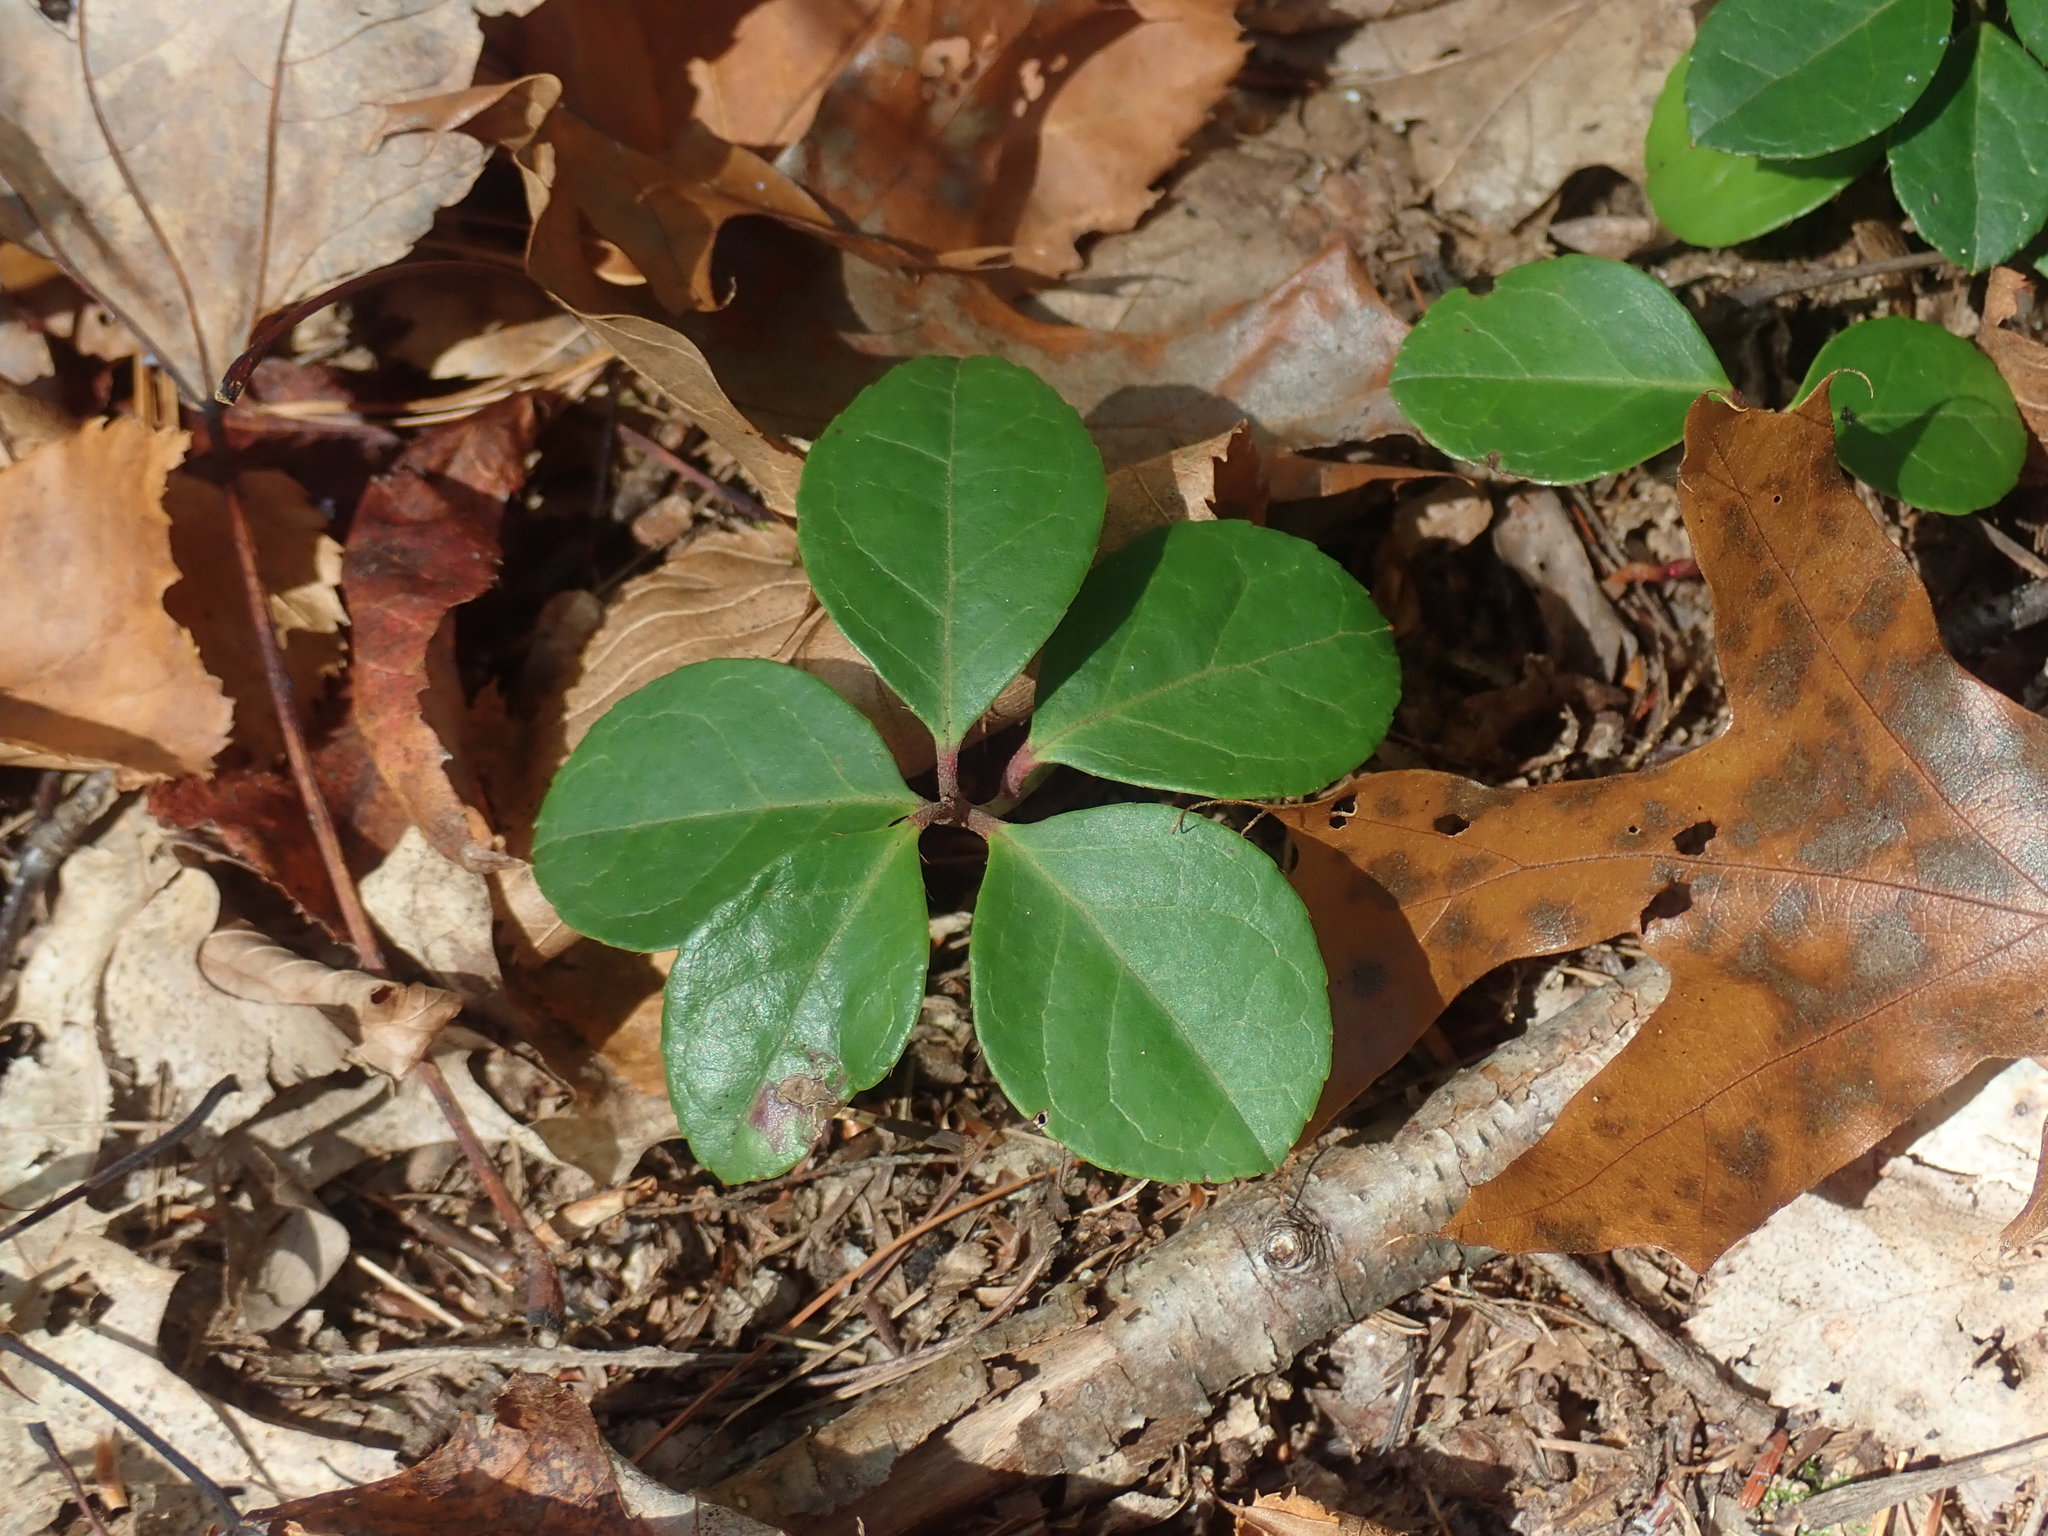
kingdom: Plantae
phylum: Tracheophyta
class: Magnoliopsida
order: Ericales
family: Ericaceae
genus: Gaultheria
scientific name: Gaultheria procumbens
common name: Checkerberry
